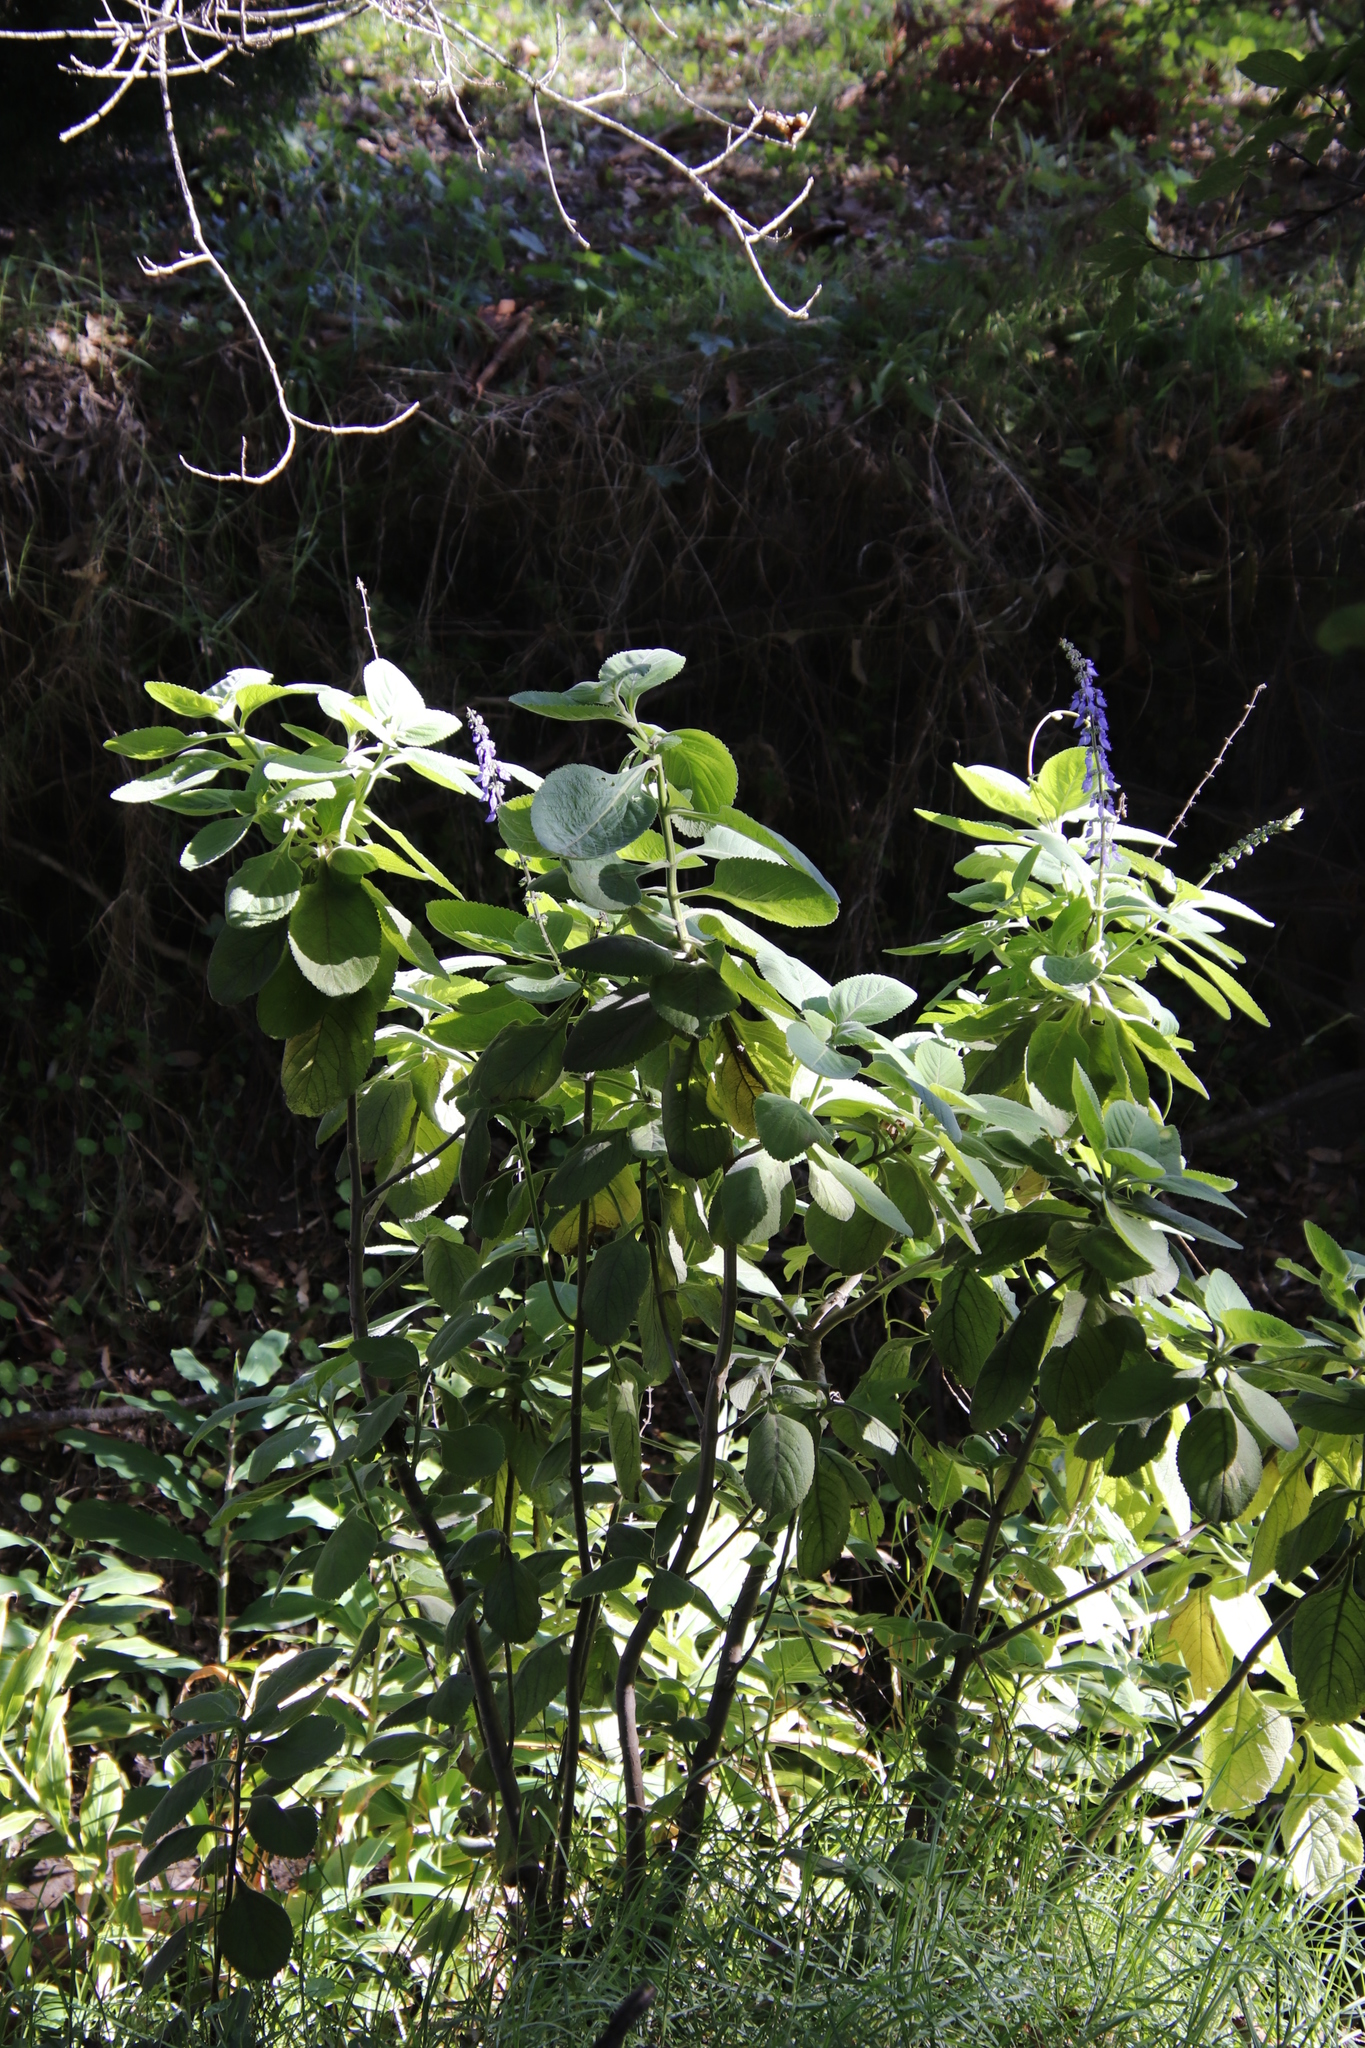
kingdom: Plantae
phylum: Tracheophyta
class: Magnoliopsida
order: Lamiales
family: Lamiaceae
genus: Coleus
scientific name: Coleus barbatus
